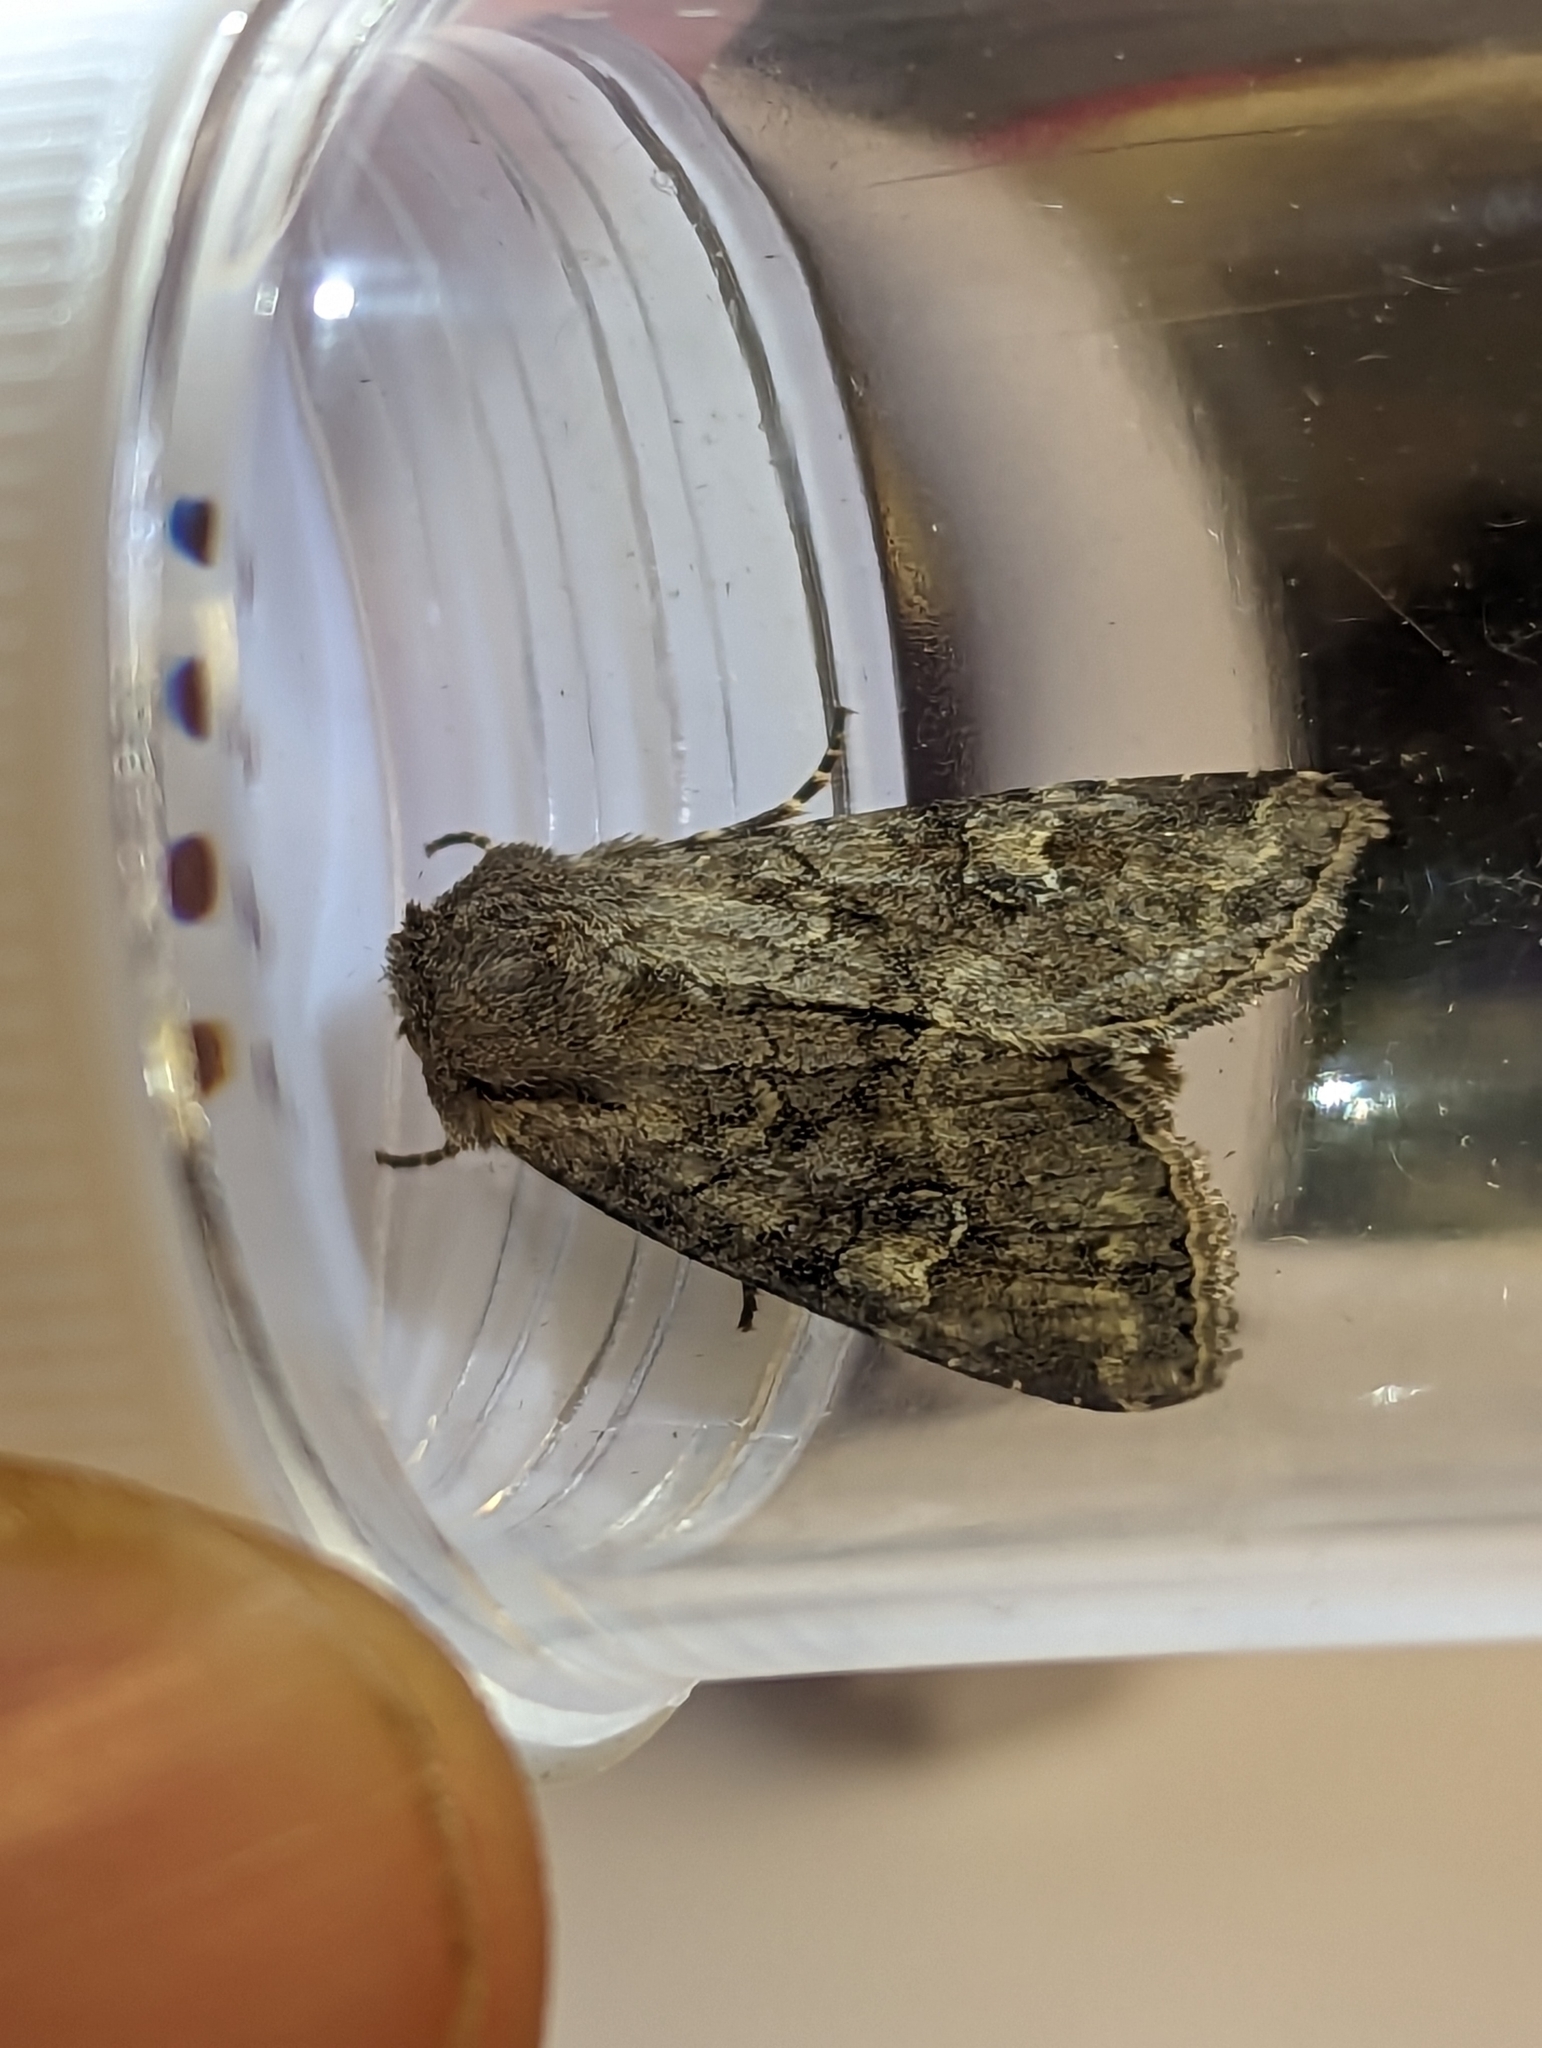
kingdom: Animalia
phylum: Arthropoda
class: Insecta
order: Lepidoptera
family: Noctuidae
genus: Apamea
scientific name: Apamea sordens
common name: Rustic shoulder-knot
